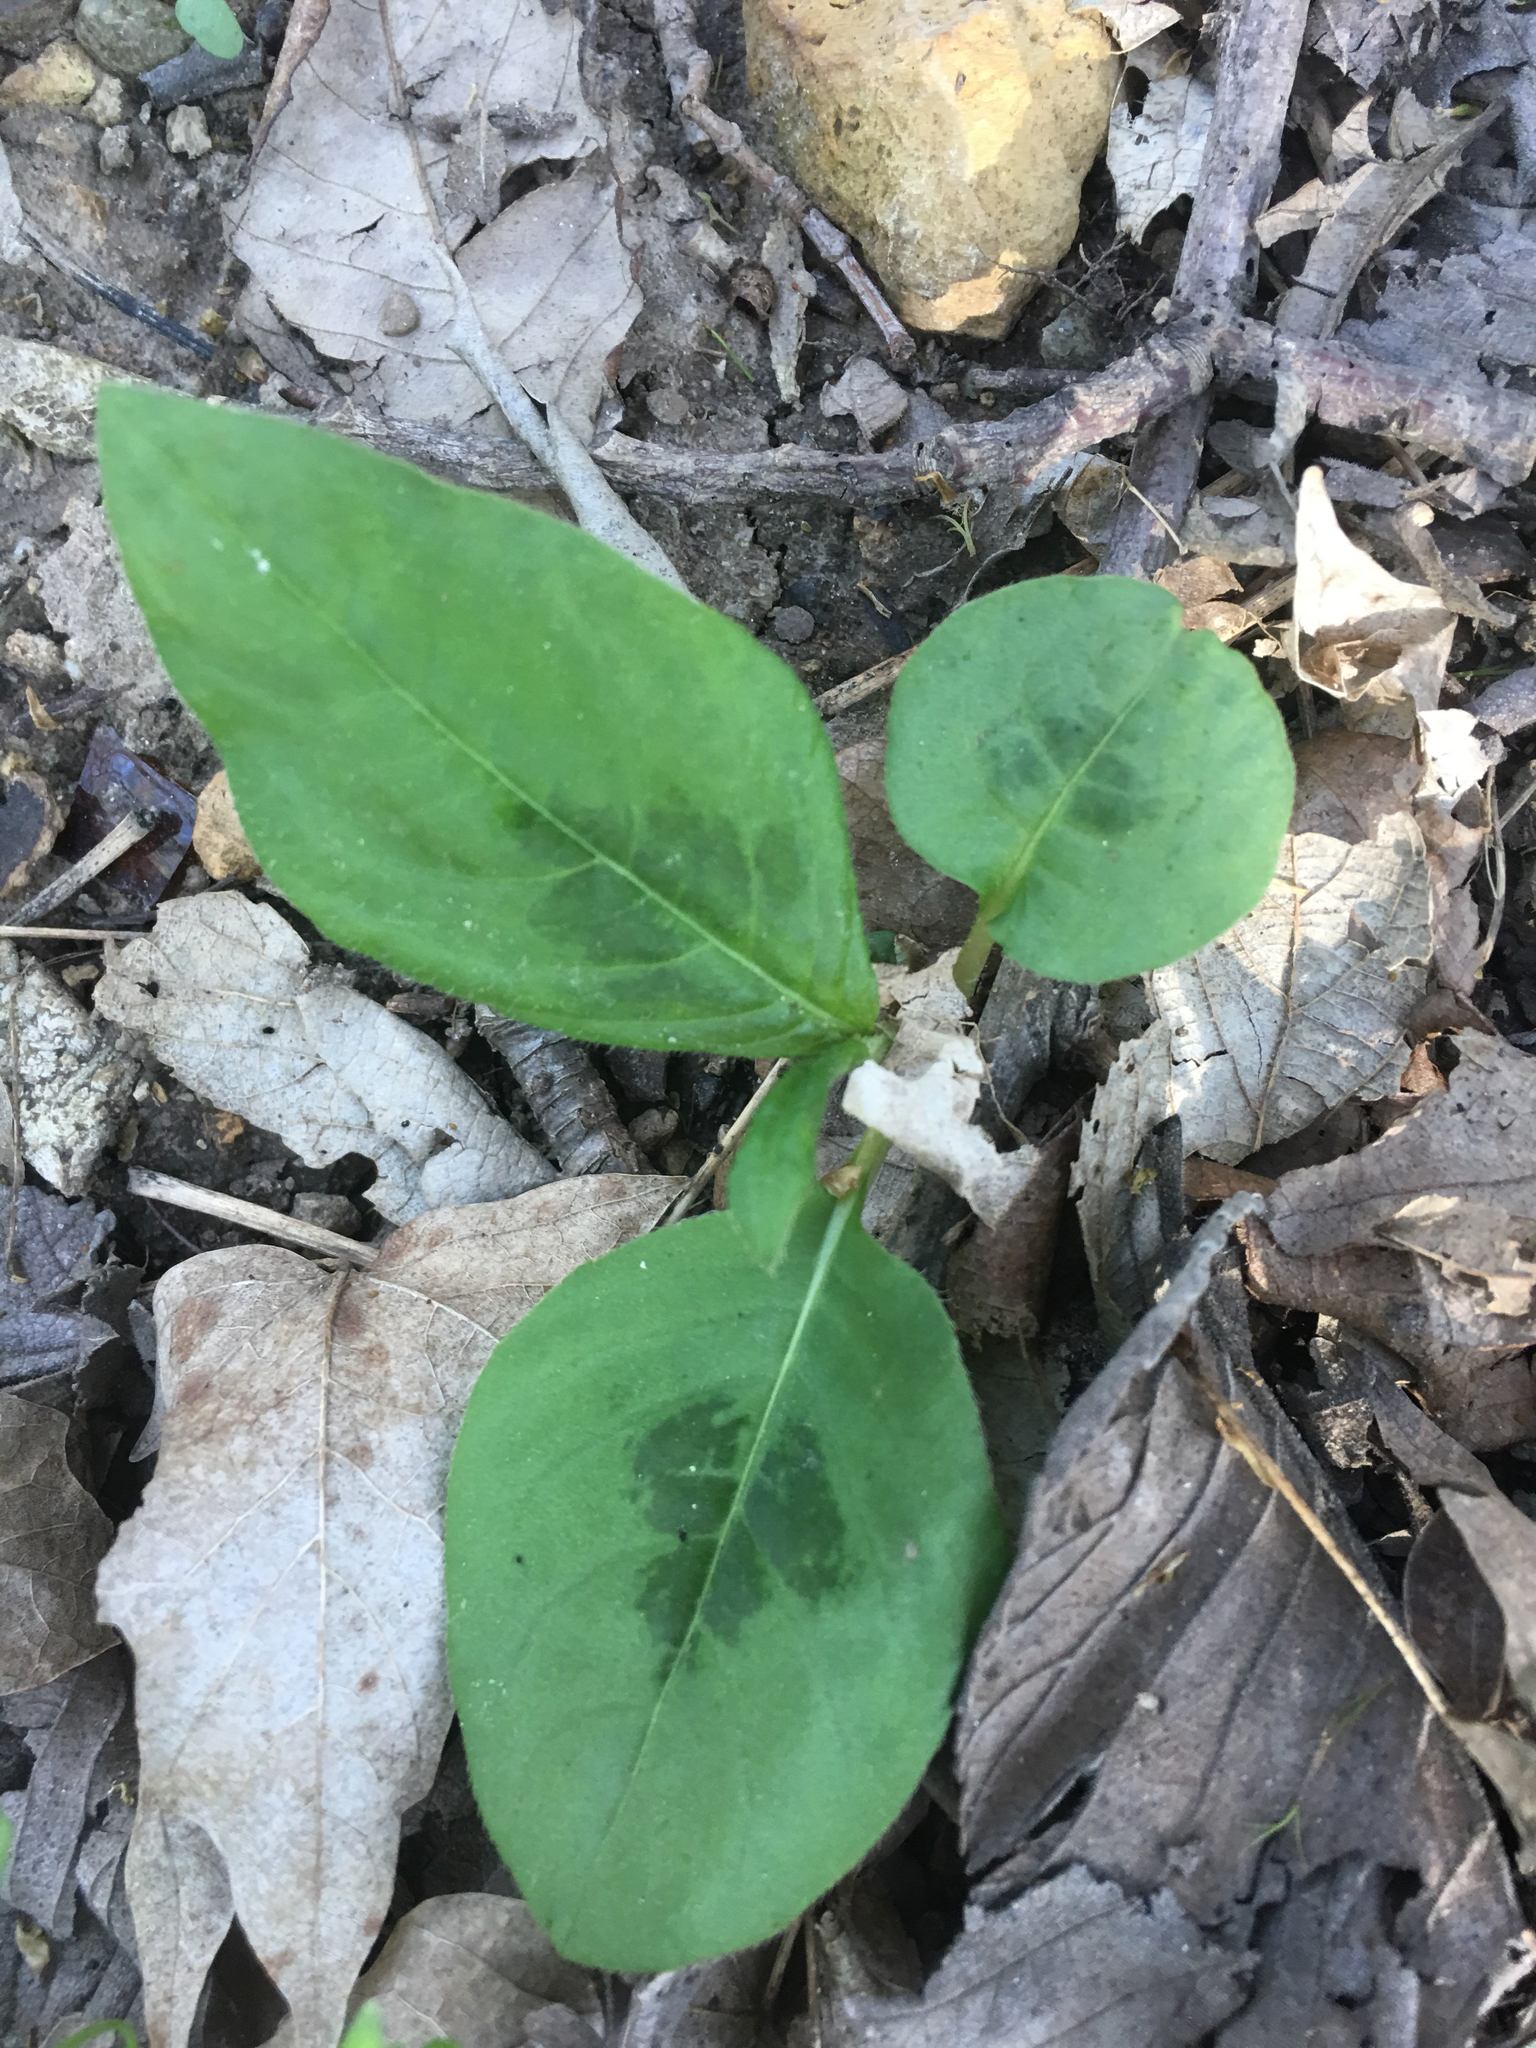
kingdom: Plantae
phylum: Tracheophyta
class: Magnoliopsida
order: Caryophyllales
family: Polygonaceae
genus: Persicaria
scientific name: Persicaria virginiana
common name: Jumpseed
